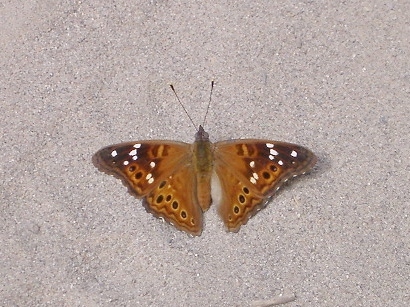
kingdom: Animalia
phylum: Arthropoda
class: Insecta
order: Lepidoptera
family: Nymphalidae
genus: Asterocampa
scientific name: Asterocampa leilia
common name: Empress leilia
